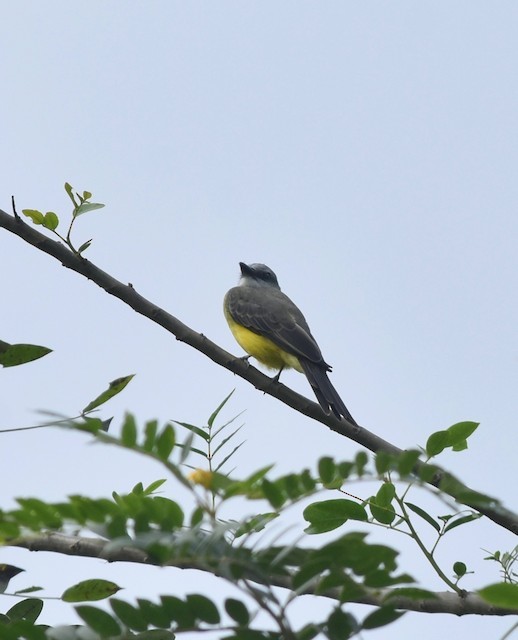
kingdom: Animalia
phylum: Chordata
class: Aves
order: Passeriformes
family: Tyrannidae
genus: Tyrannus
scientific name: Tyrannus melancholicus
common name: Tropical kingbird
